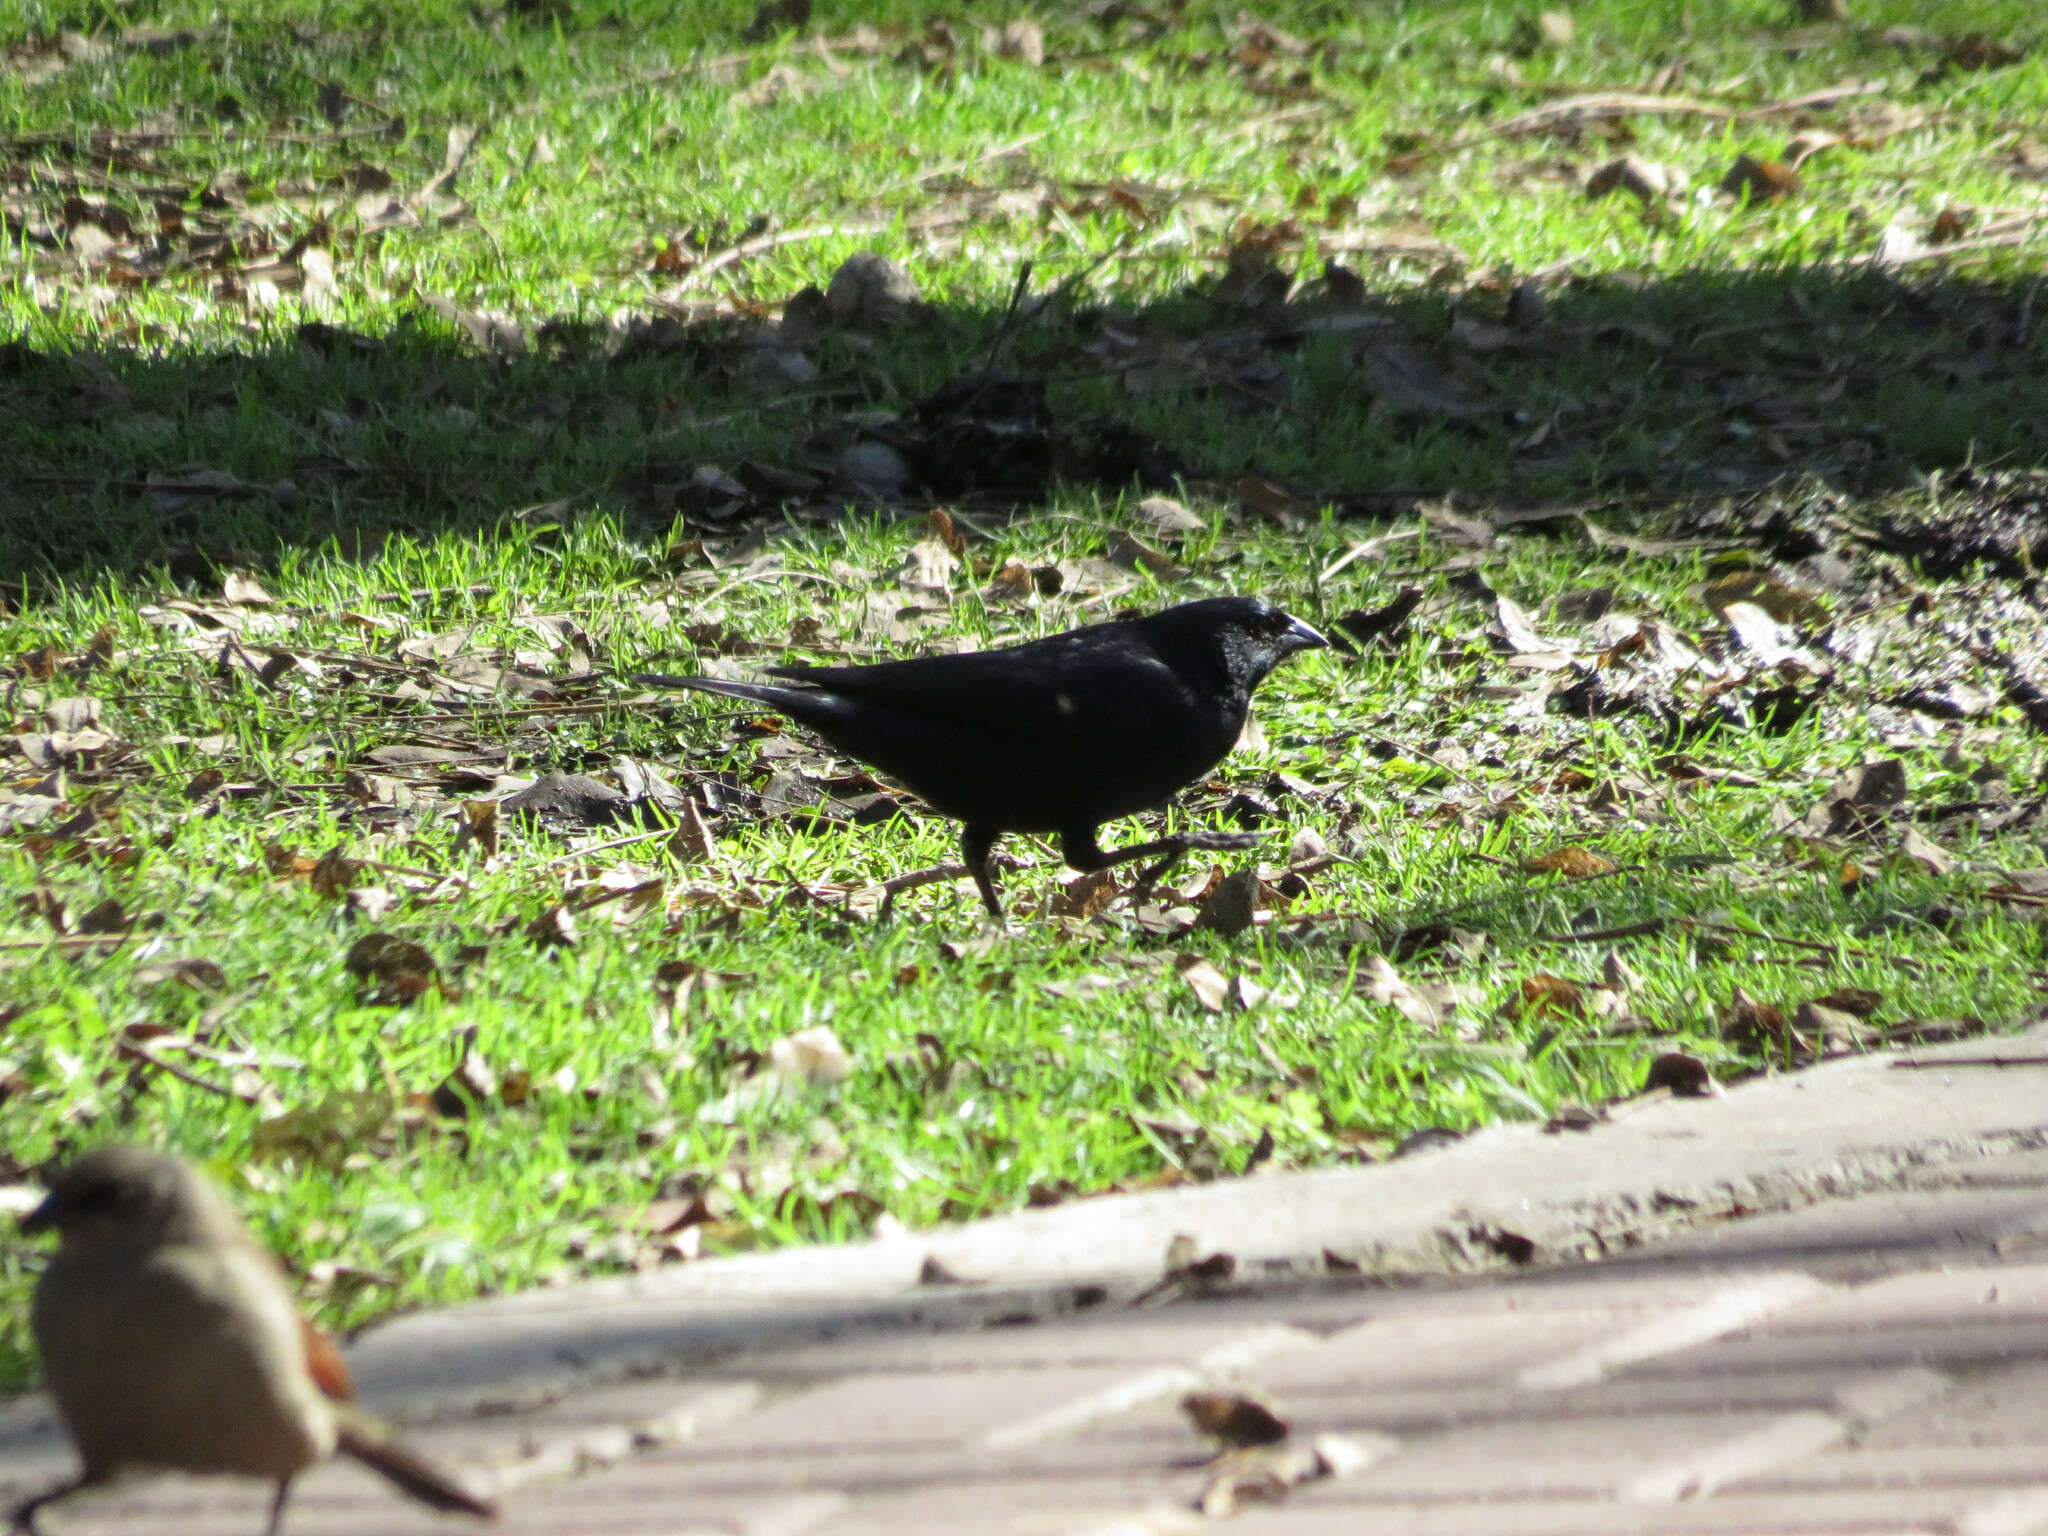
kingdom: Animalia
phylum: Chordata
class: Aves
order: Passeriformes
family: Icteridae
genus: Molothrus
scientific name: Molothrus rufoaxillaris
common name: Screaming cowbird
